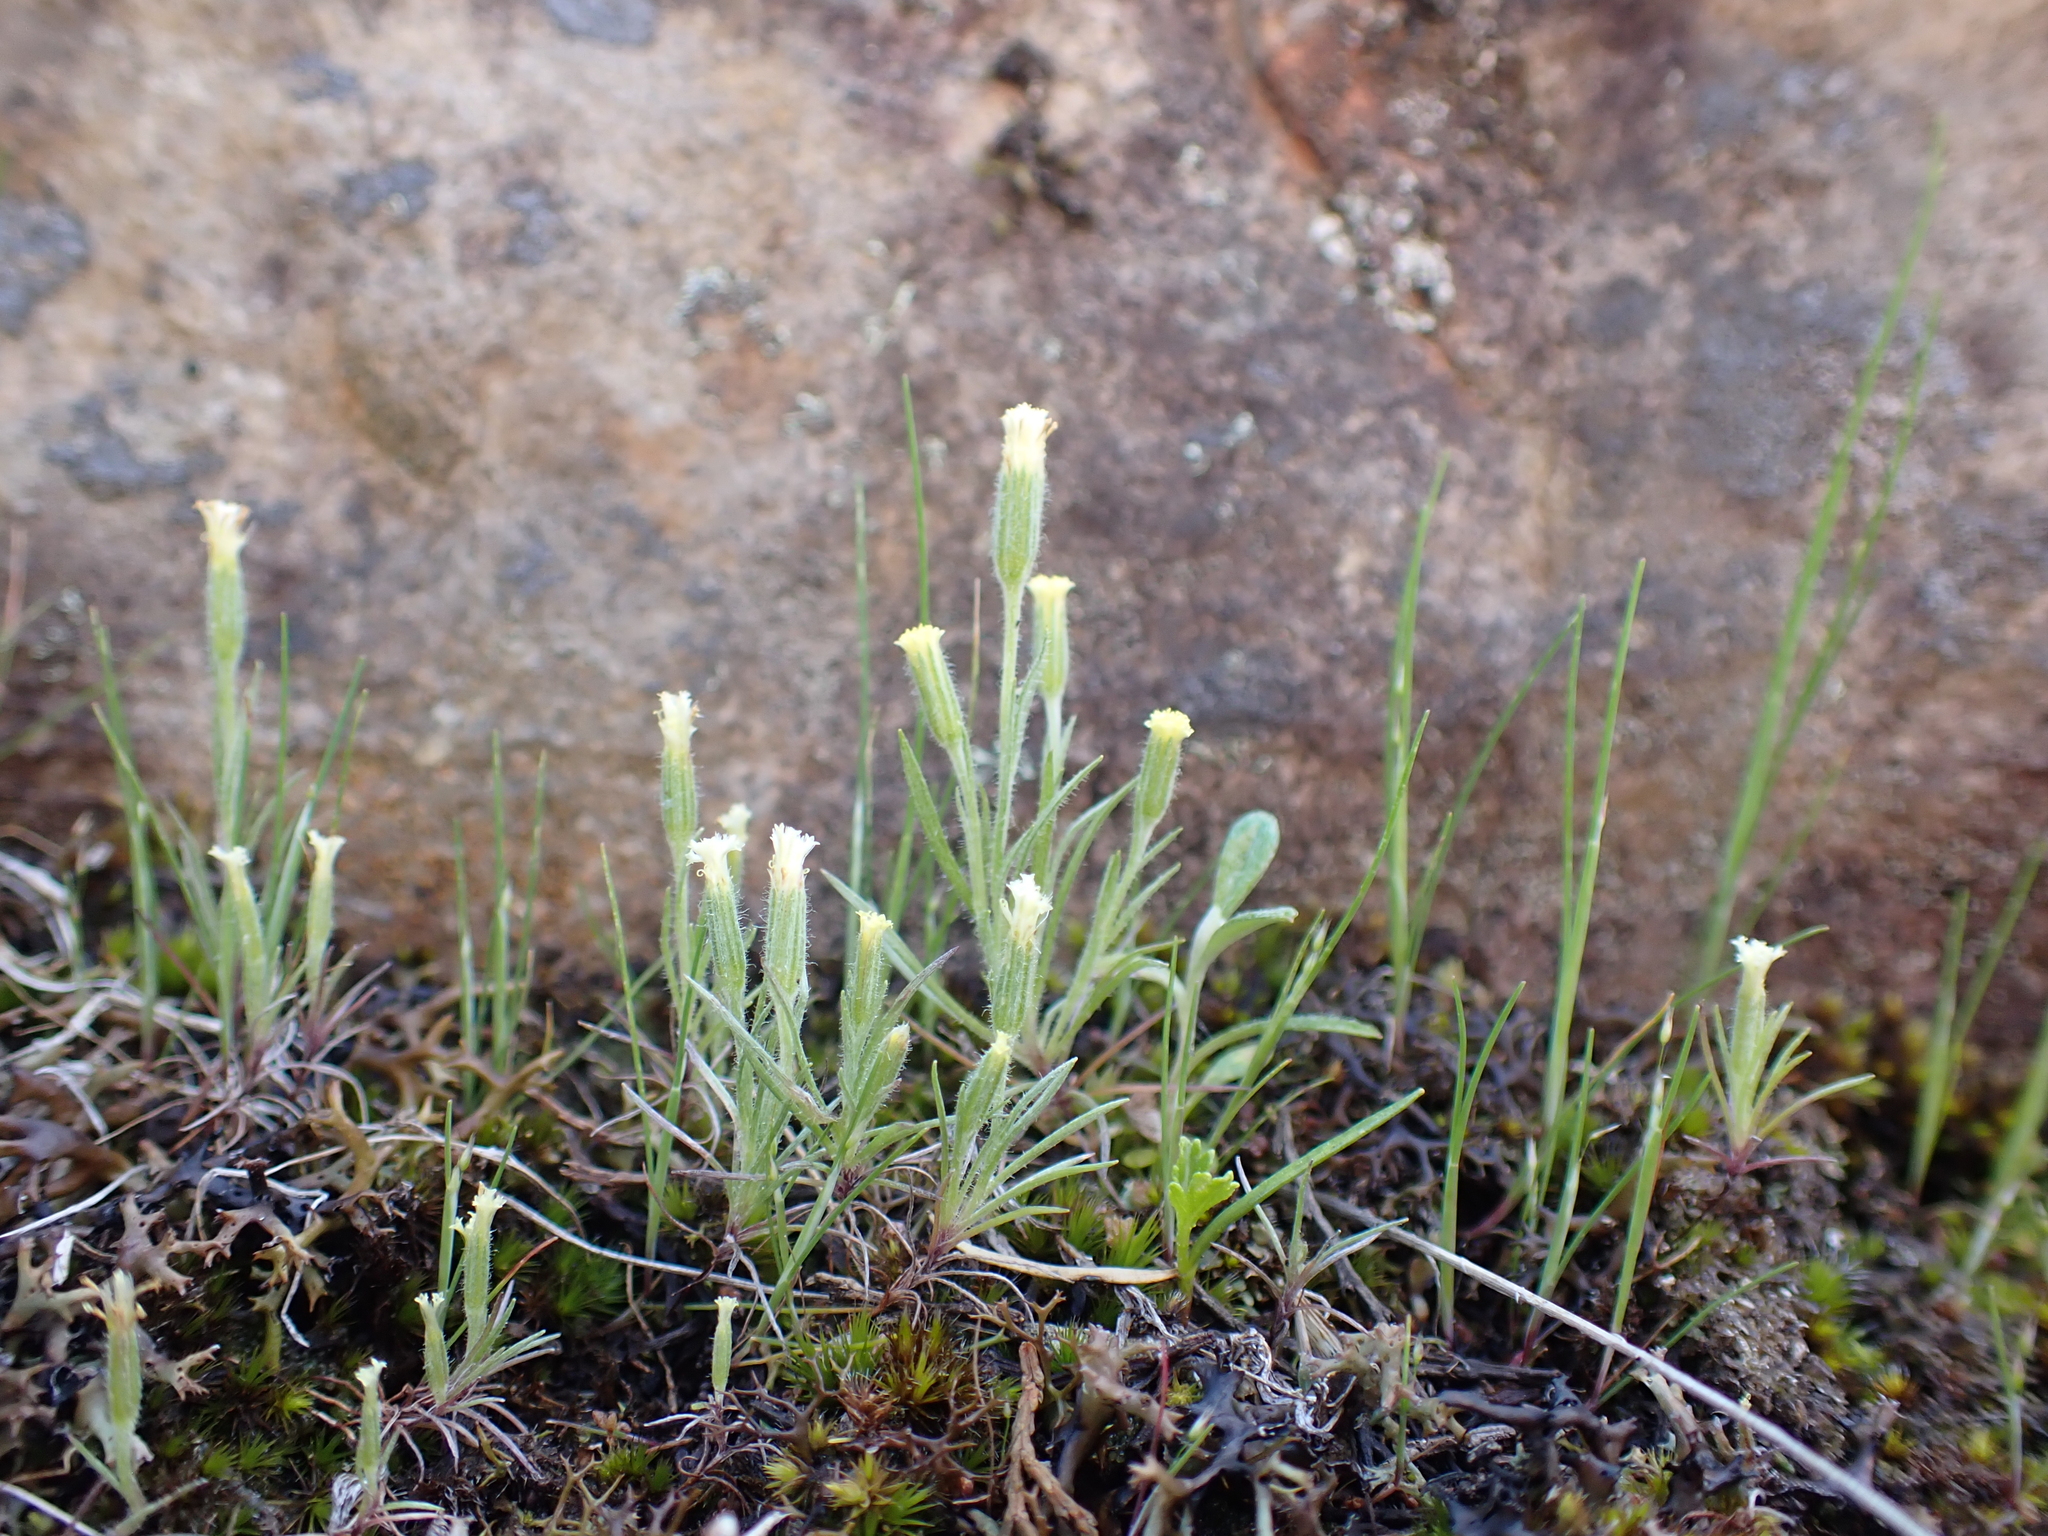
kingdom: Plantae
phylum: Tracheophyta
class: Magnoliopsida
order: Asterales
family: Asteraceae
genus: Millotia
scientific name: Millotia tenuifolia
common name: Soft millotia
